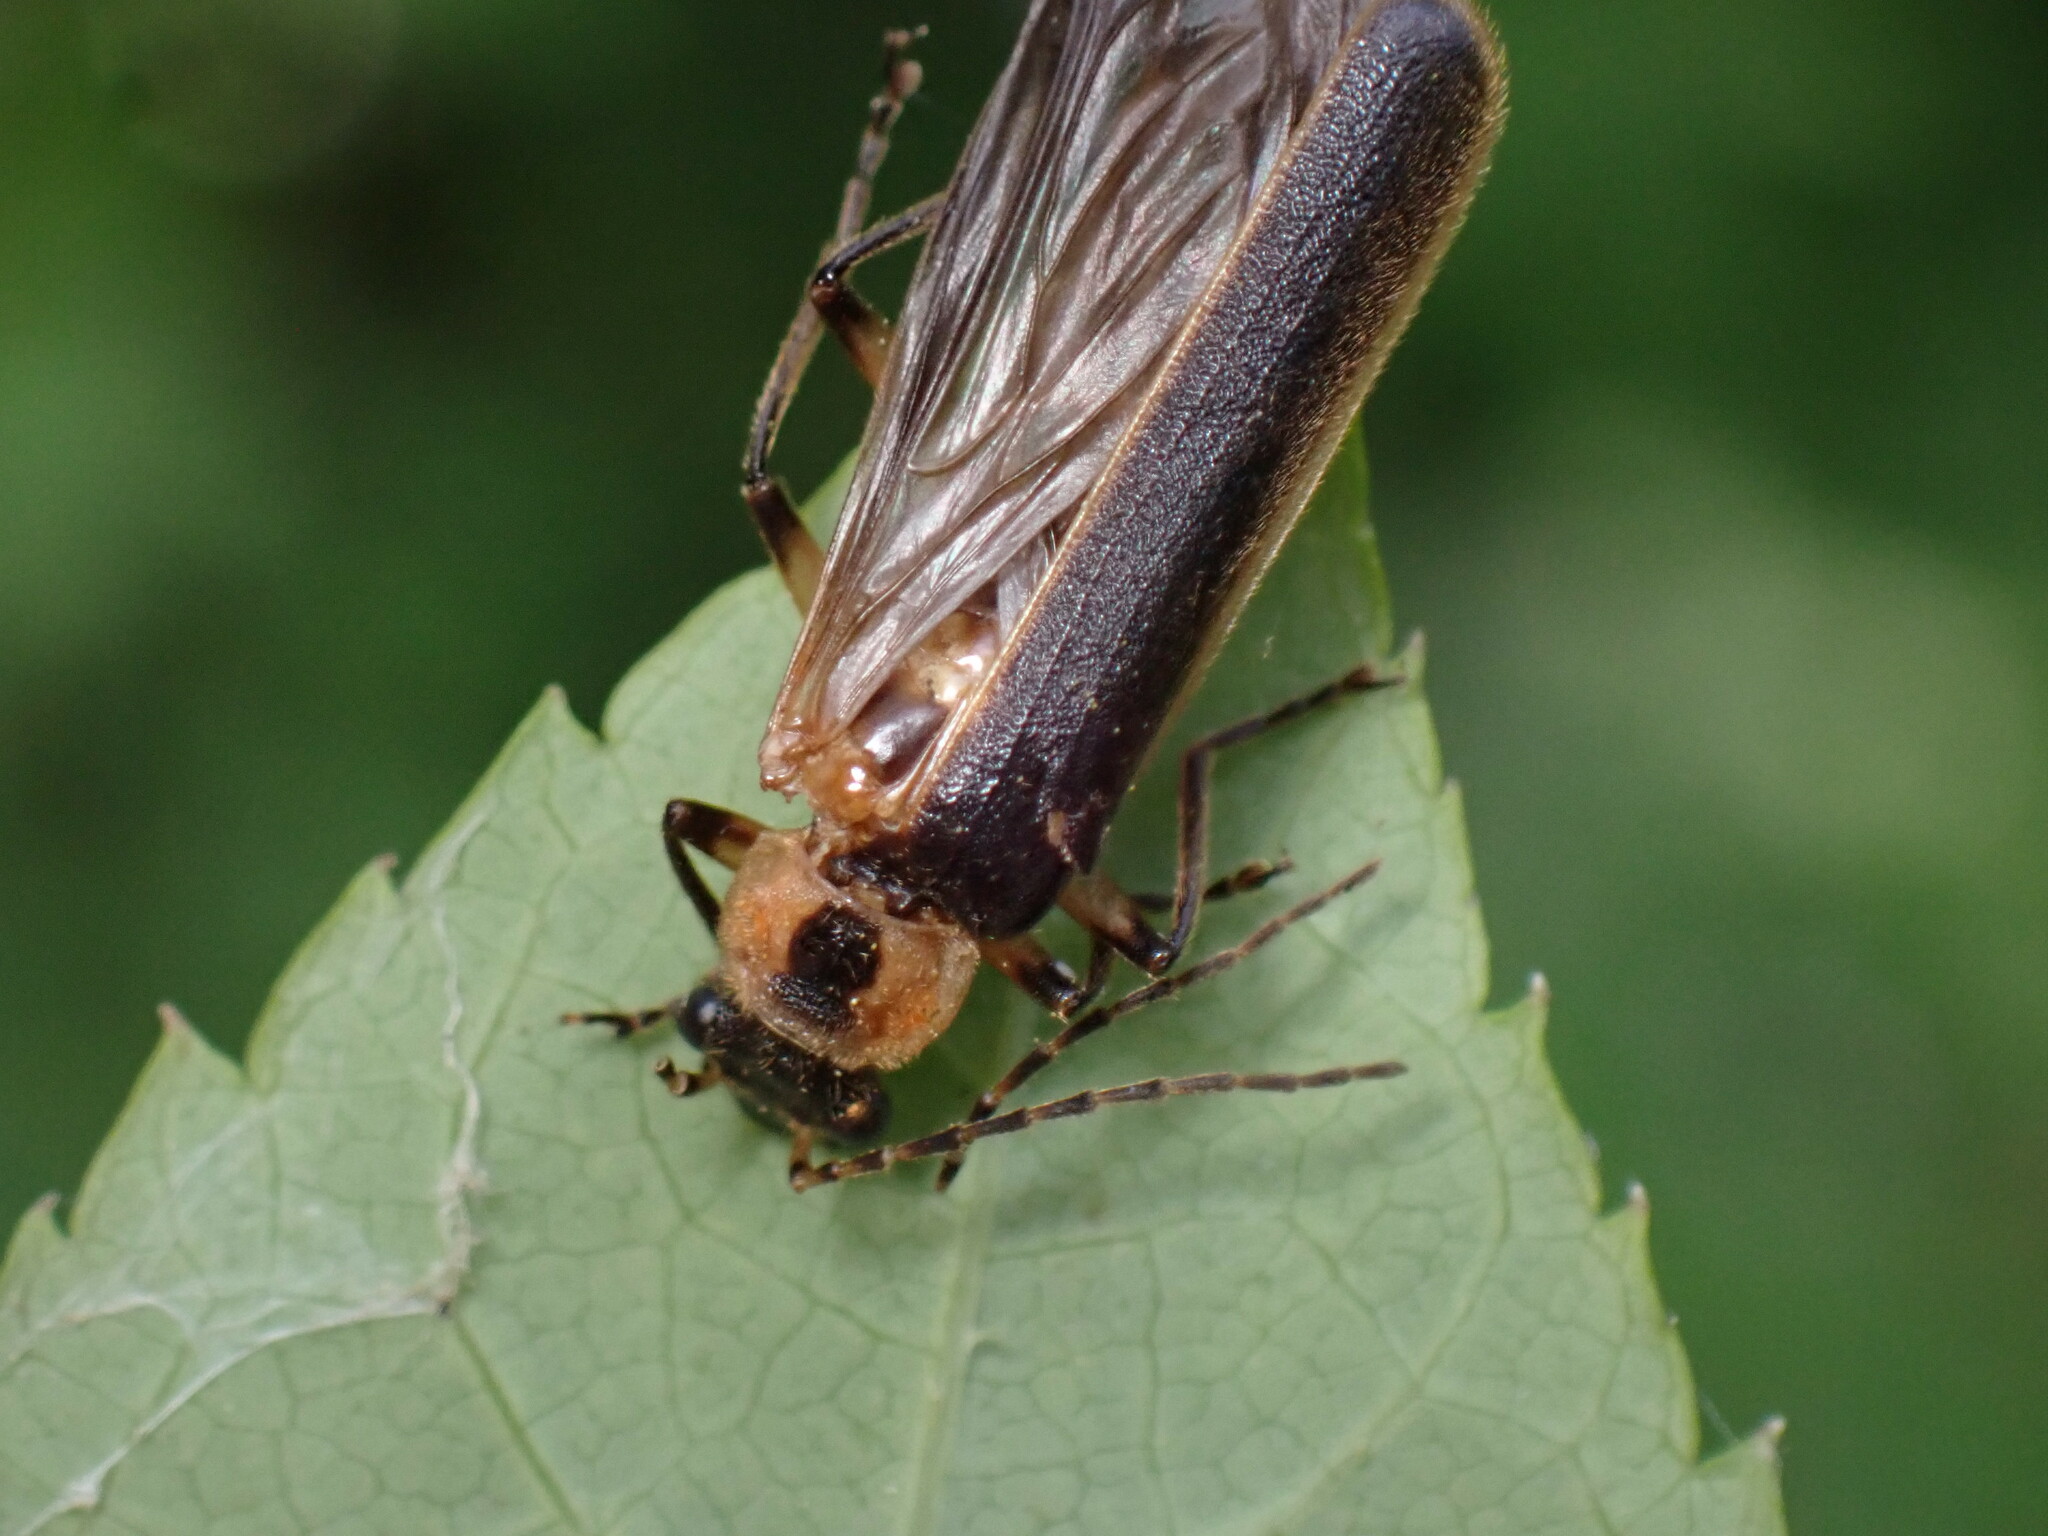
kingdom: Animalia
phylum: Arthropoda
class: Insecta
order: Coleoptera
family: Cantharidae
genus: Podabrus
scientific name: Podabrus basilaris
